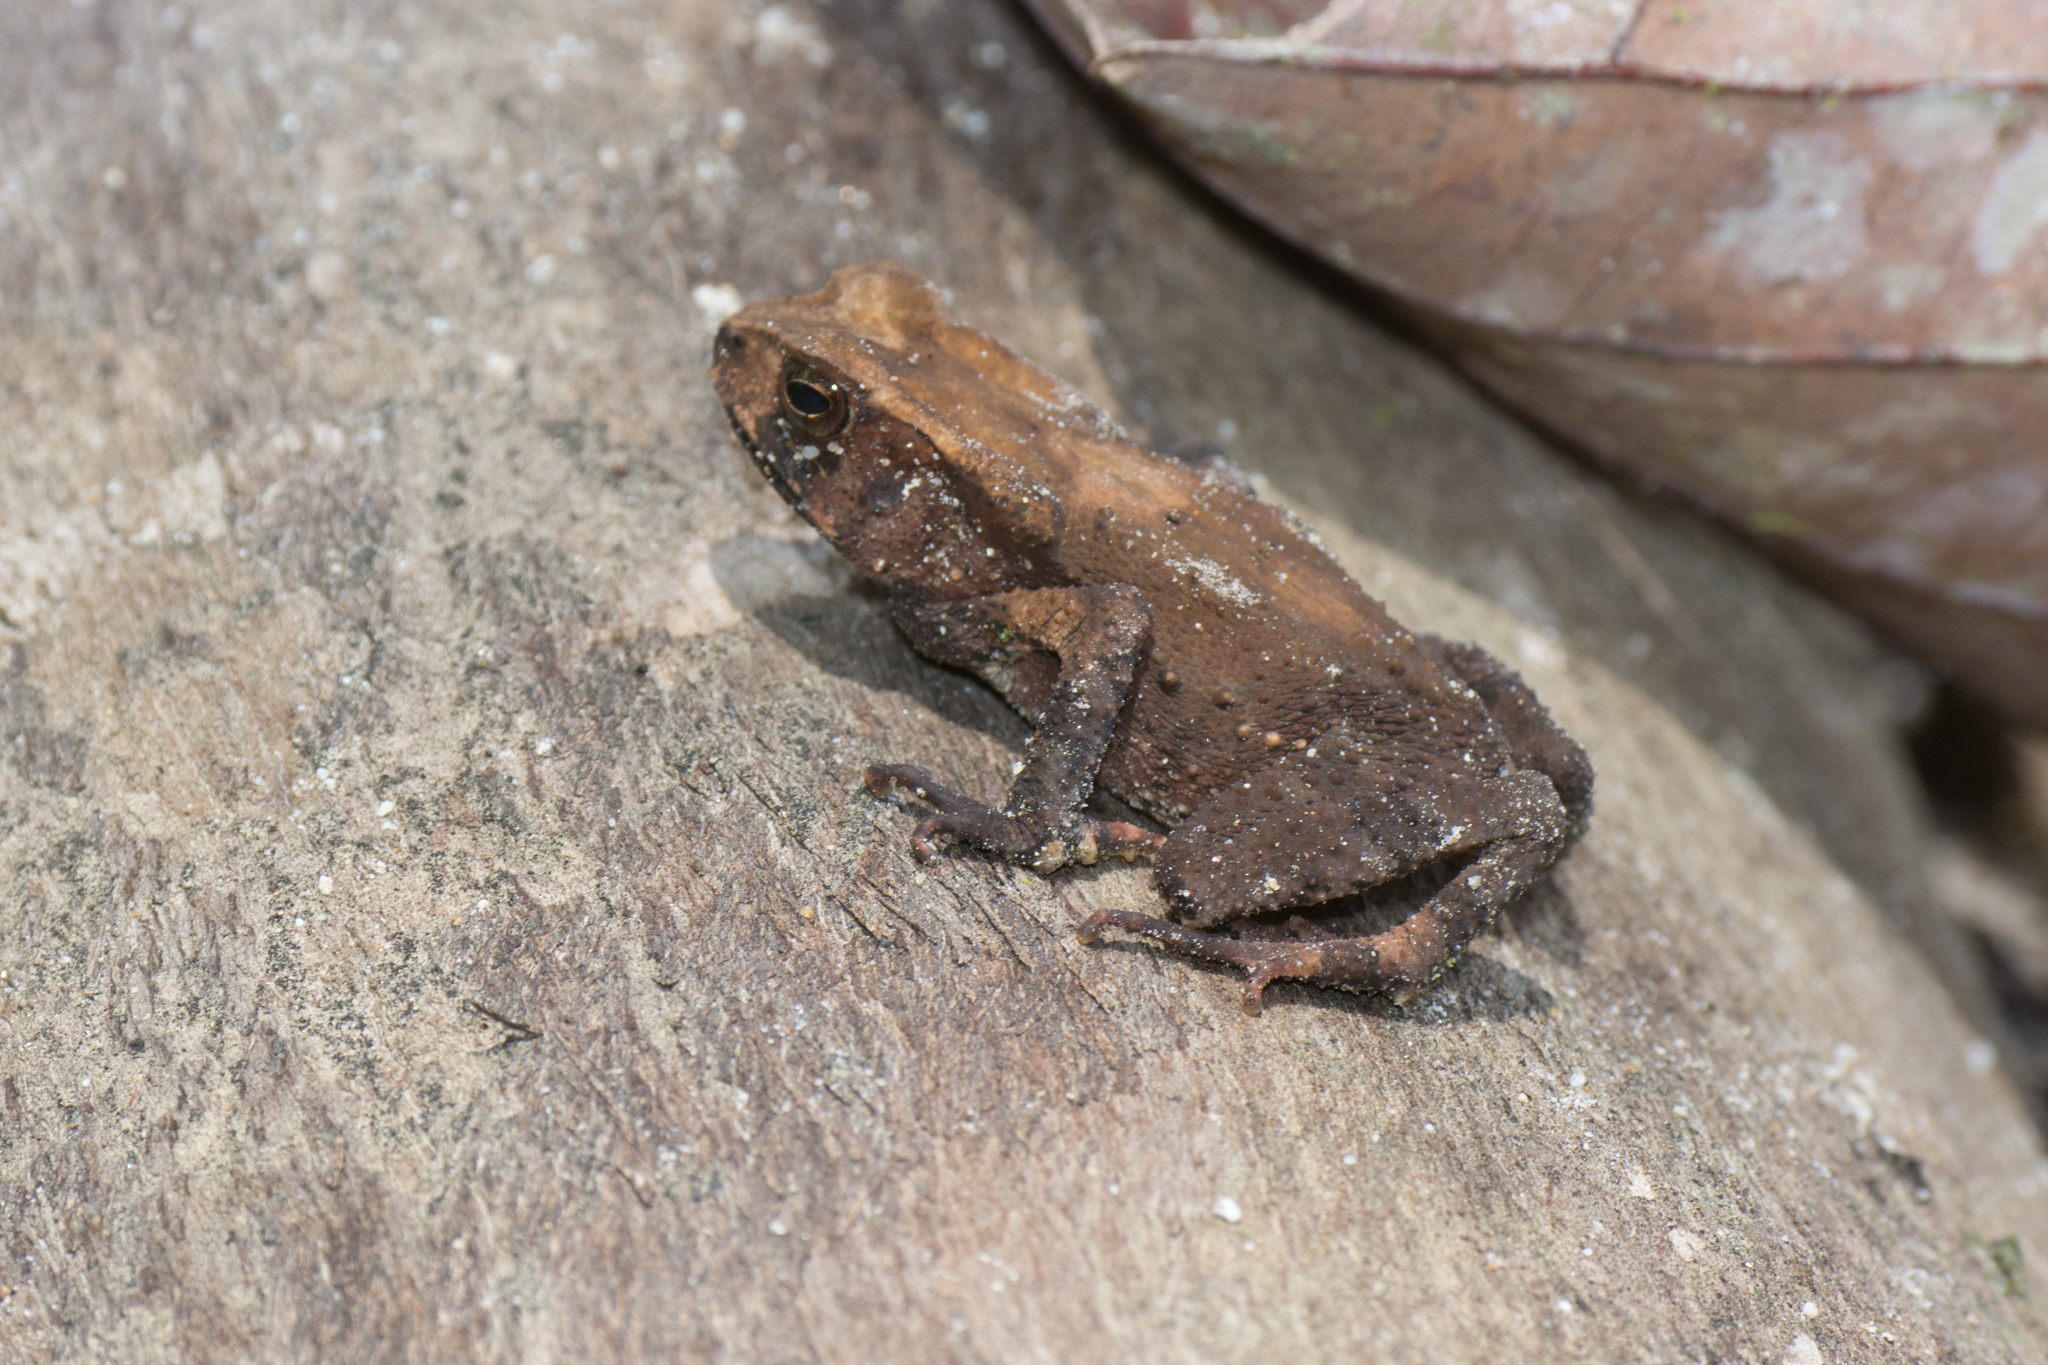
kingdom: Animalia
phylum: Chordata
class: Amphibia
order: Anura
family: Bufonidae
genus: Ingerophrynus
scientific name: Ingerophrynus celebensis
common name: Celebes toad
